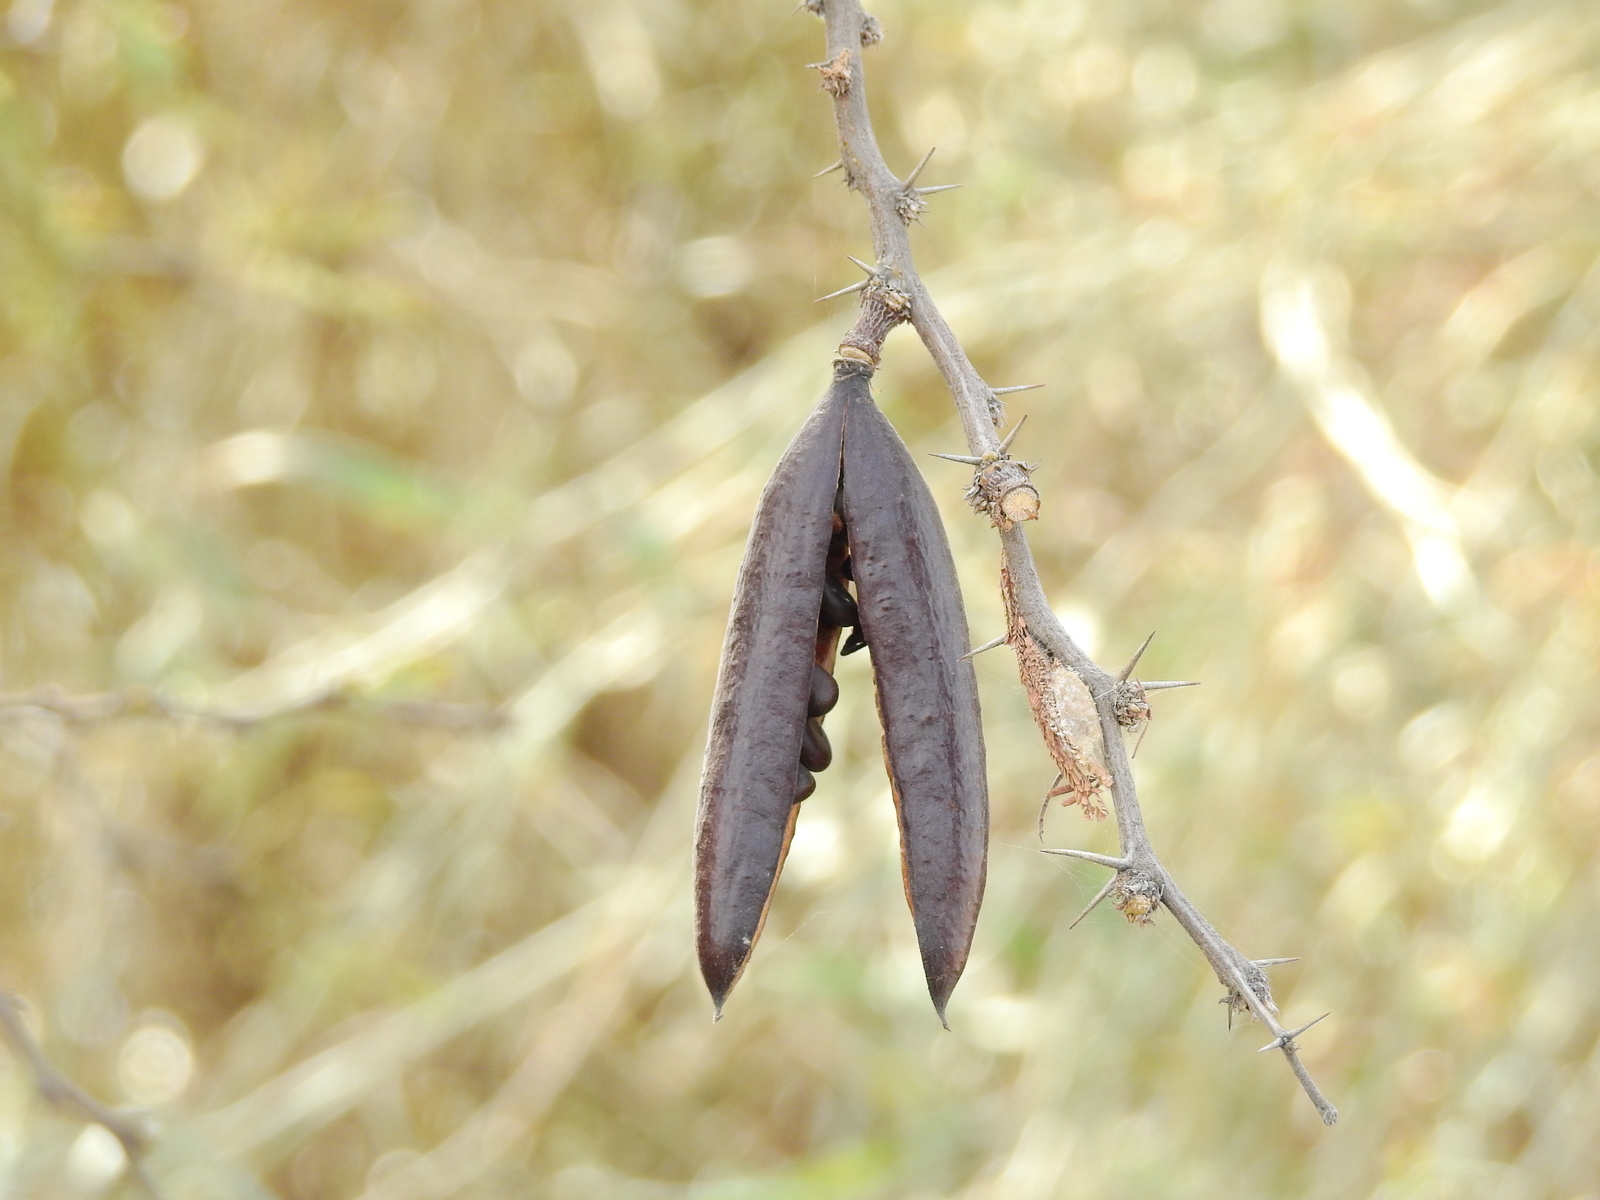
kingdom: Plantae
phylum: Tracheophyta
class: Magnoliopsida
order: Fabales
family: Fabaceae
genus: Vachellia
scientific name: Vachellia caven
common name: Roman cassie
